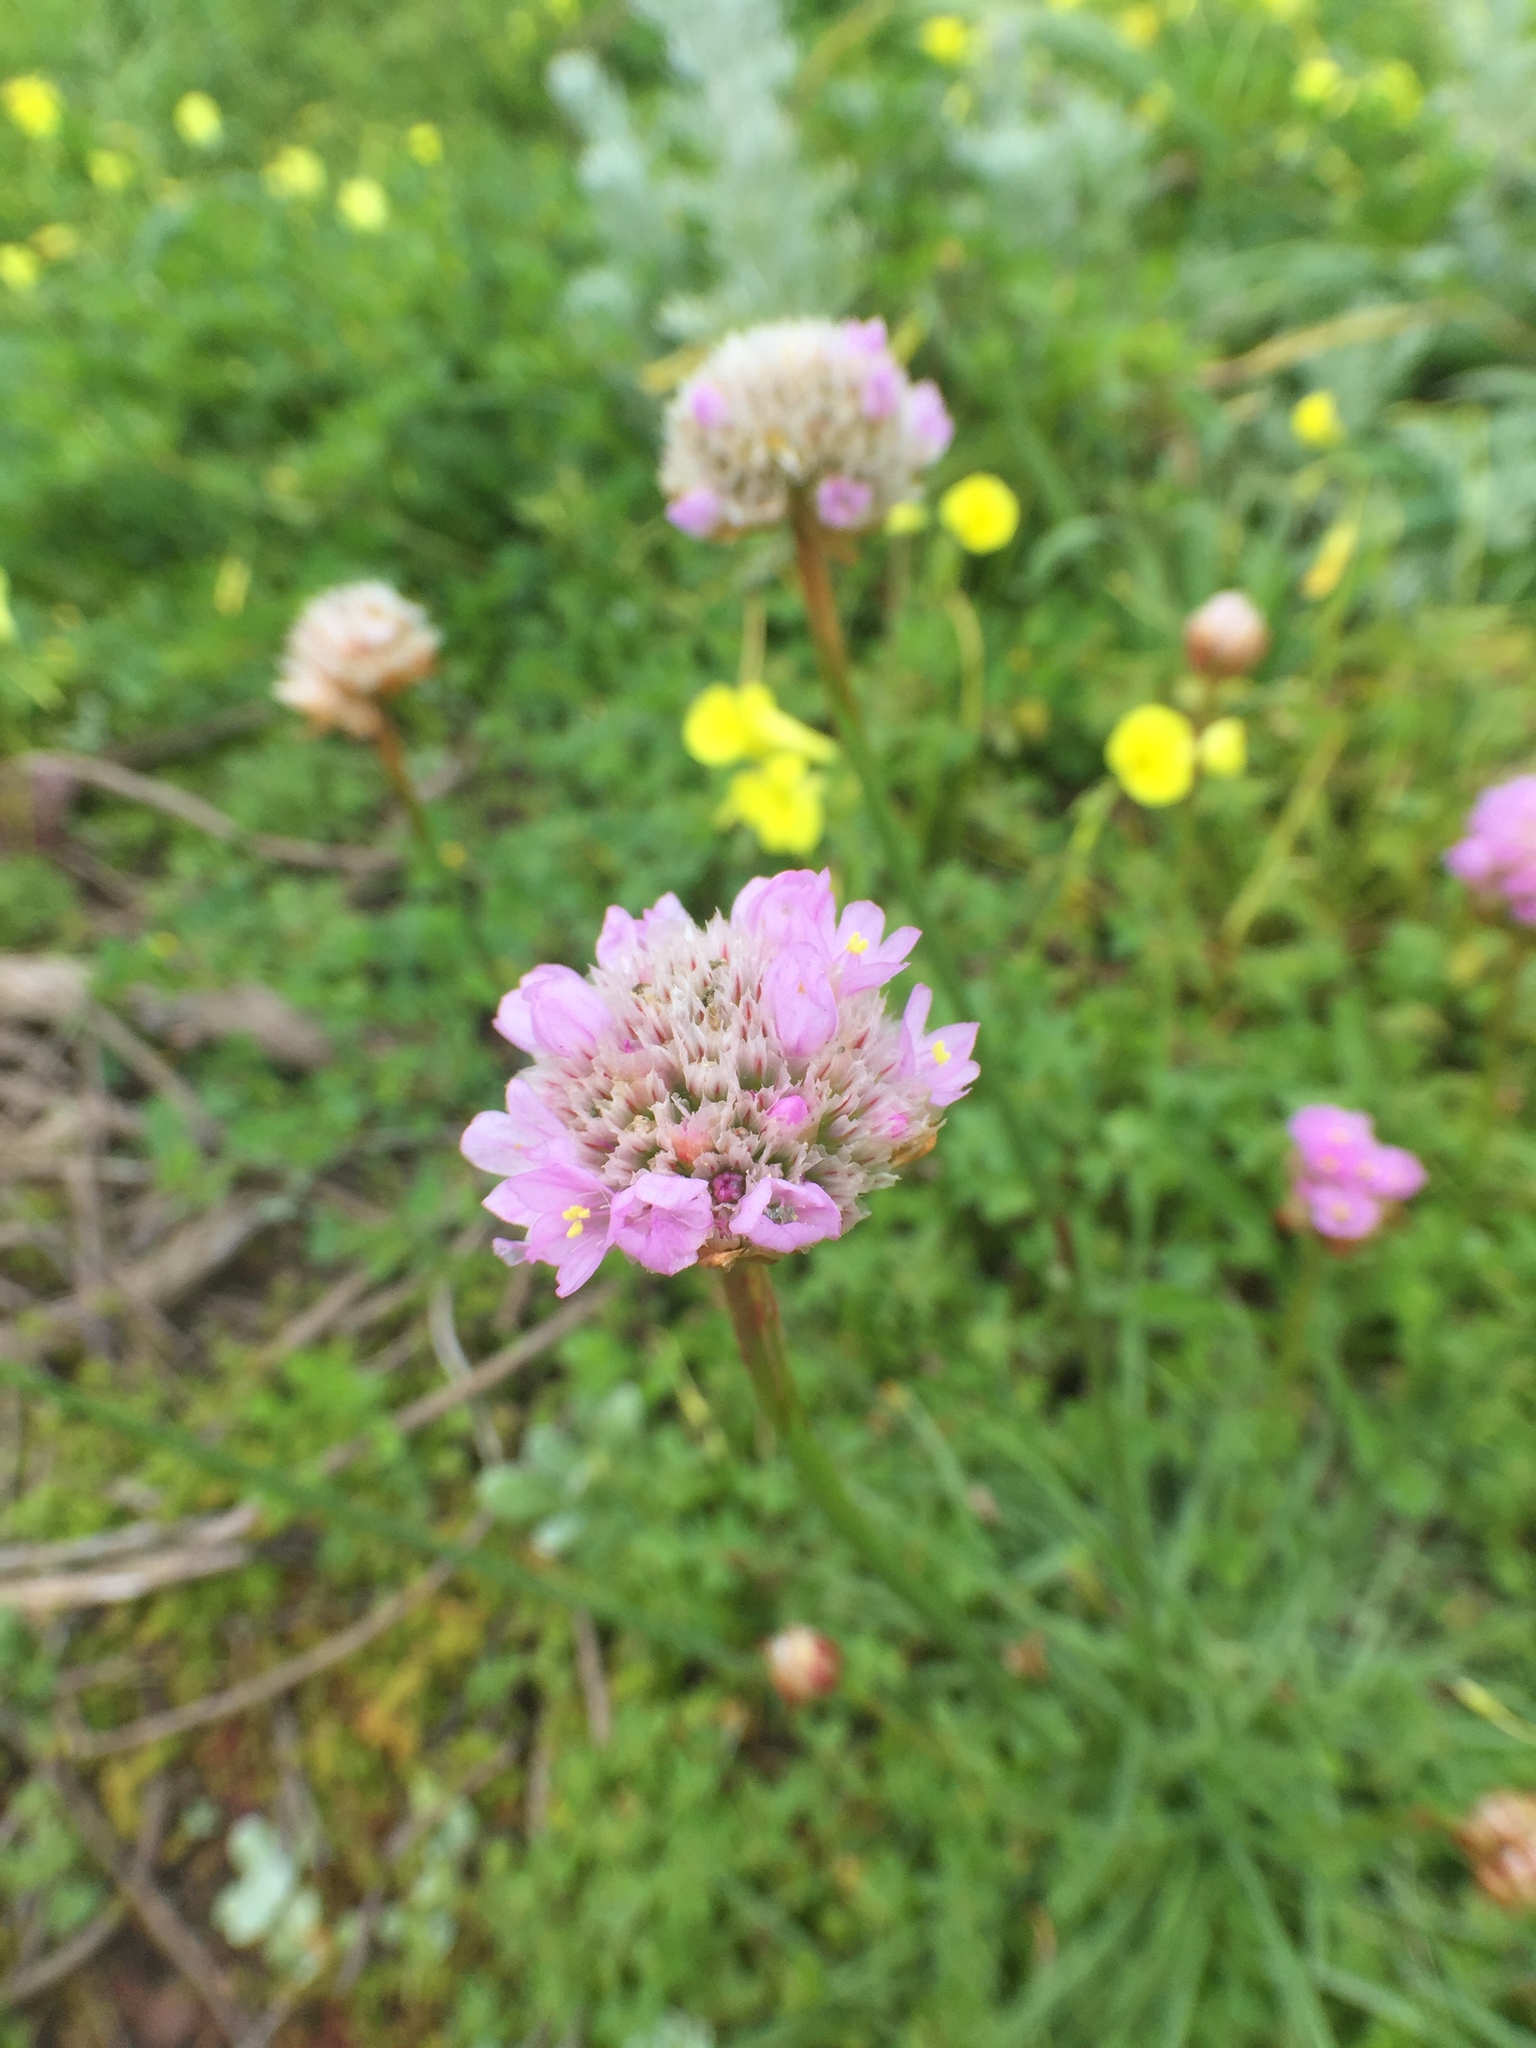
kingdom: Plantae
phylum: Tracheophyta
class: Magnoliopsida
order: Caryophyllales
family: Plumbaginaceae
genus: Armeria
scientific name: Armeria maritima
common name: Thrift
